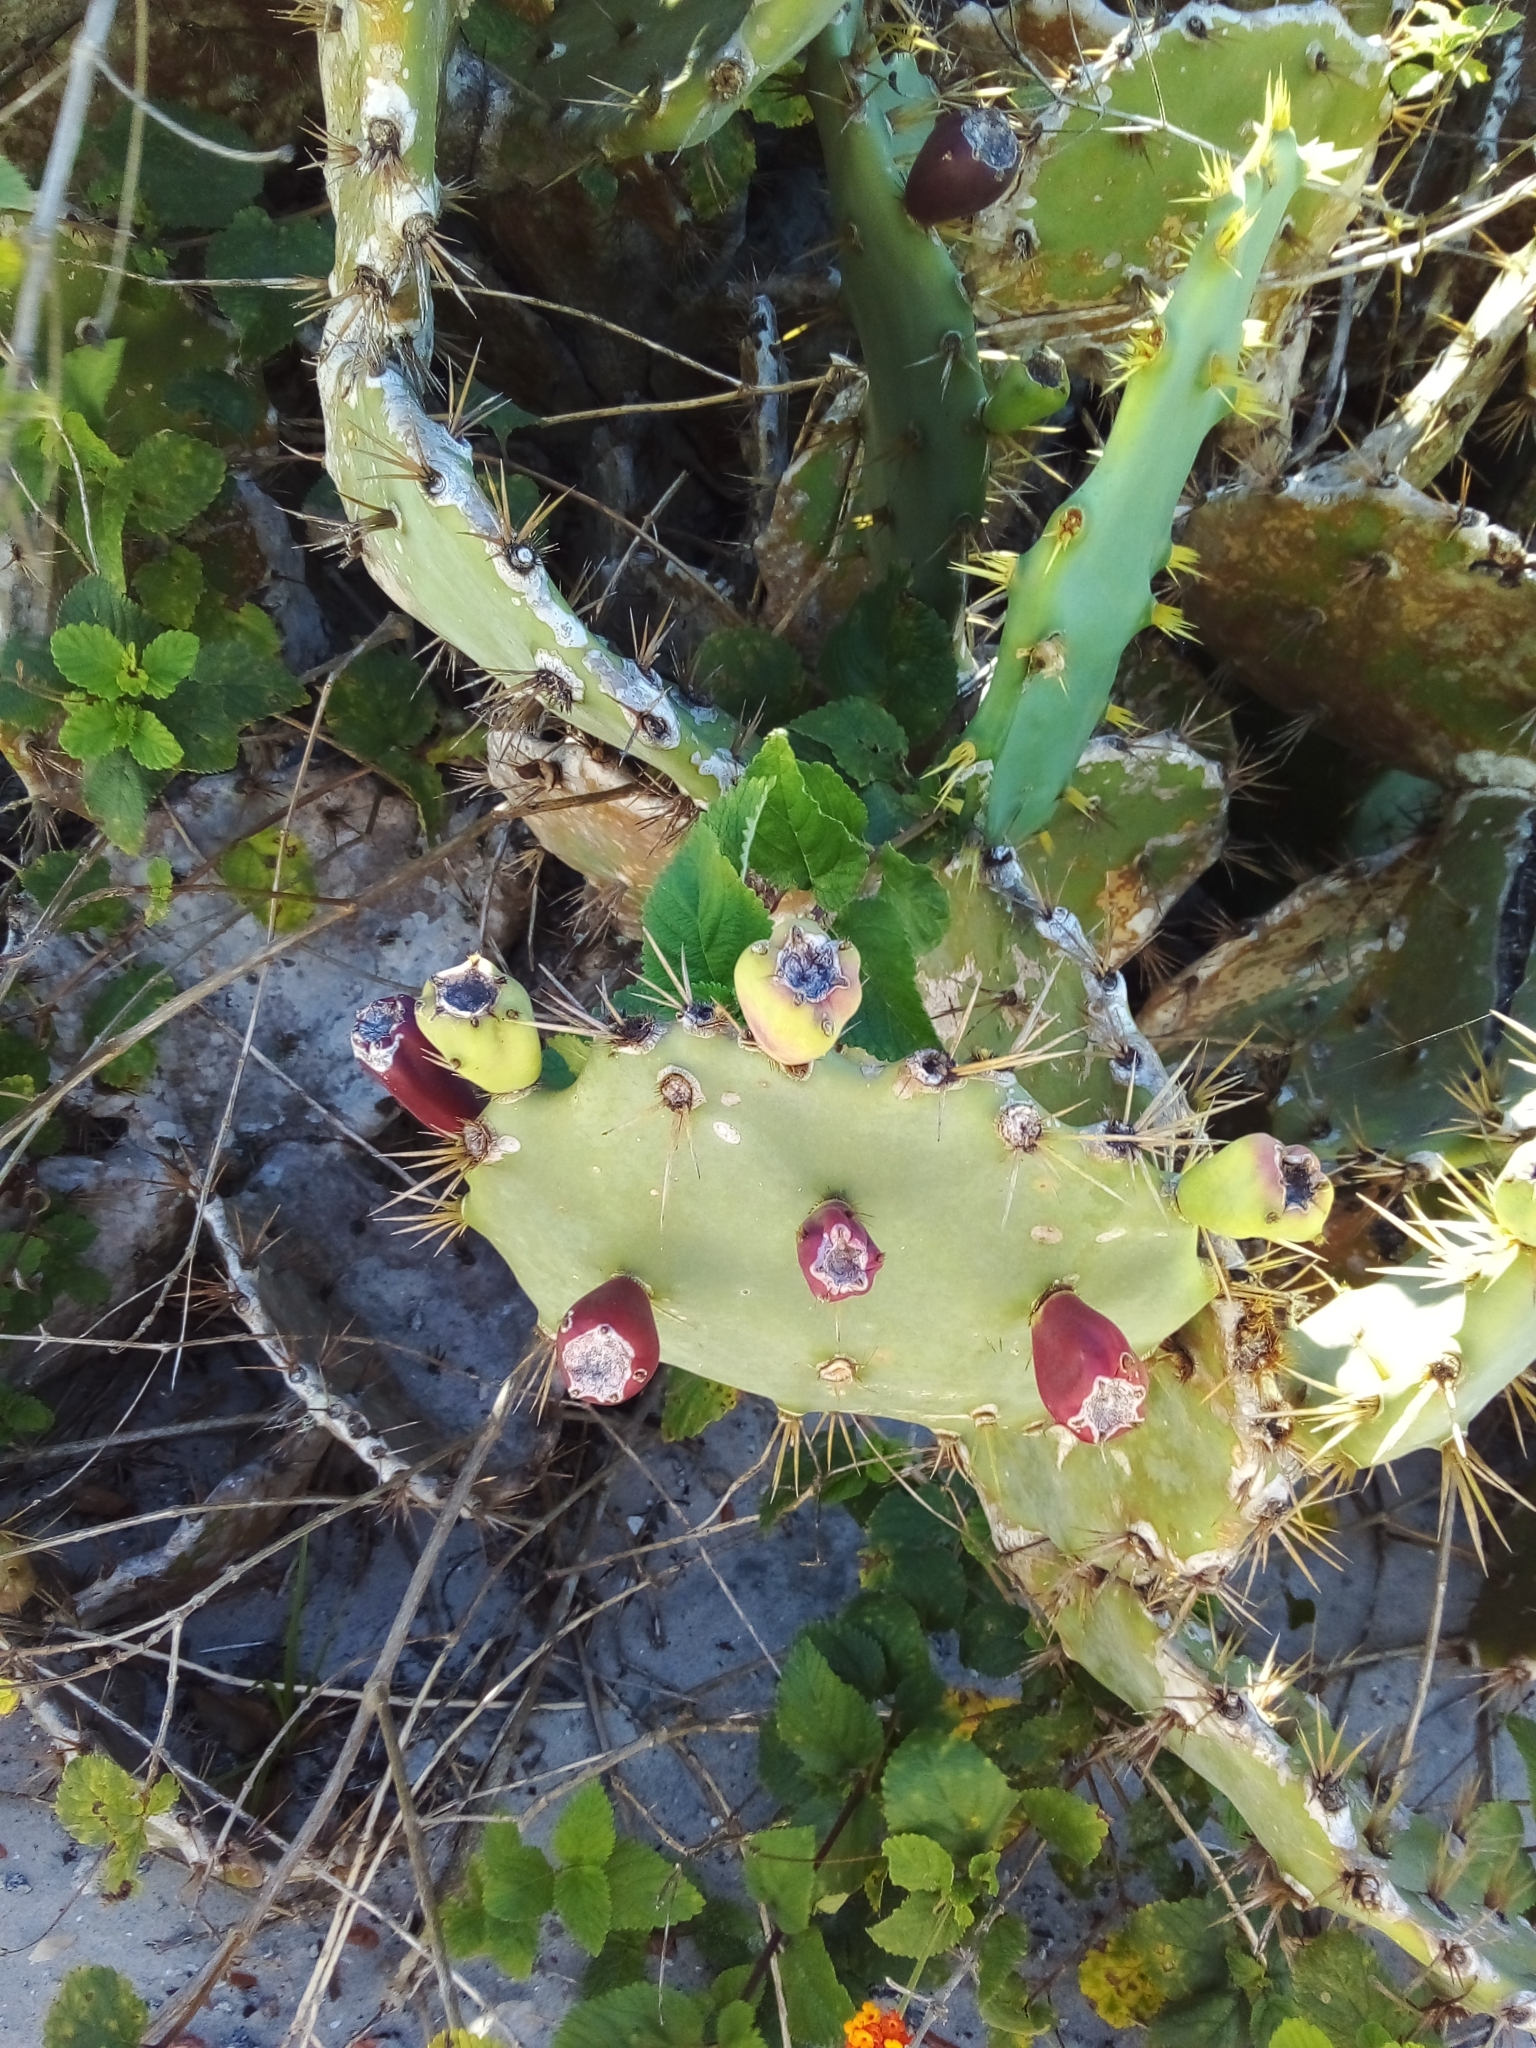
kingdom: Plantae
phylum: Tracheophyta
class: Magnoliopsida
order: Caryophyllales
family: Cactaceae
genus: Opuntia
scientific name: Opuntia dillenii
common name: Sour prickle
